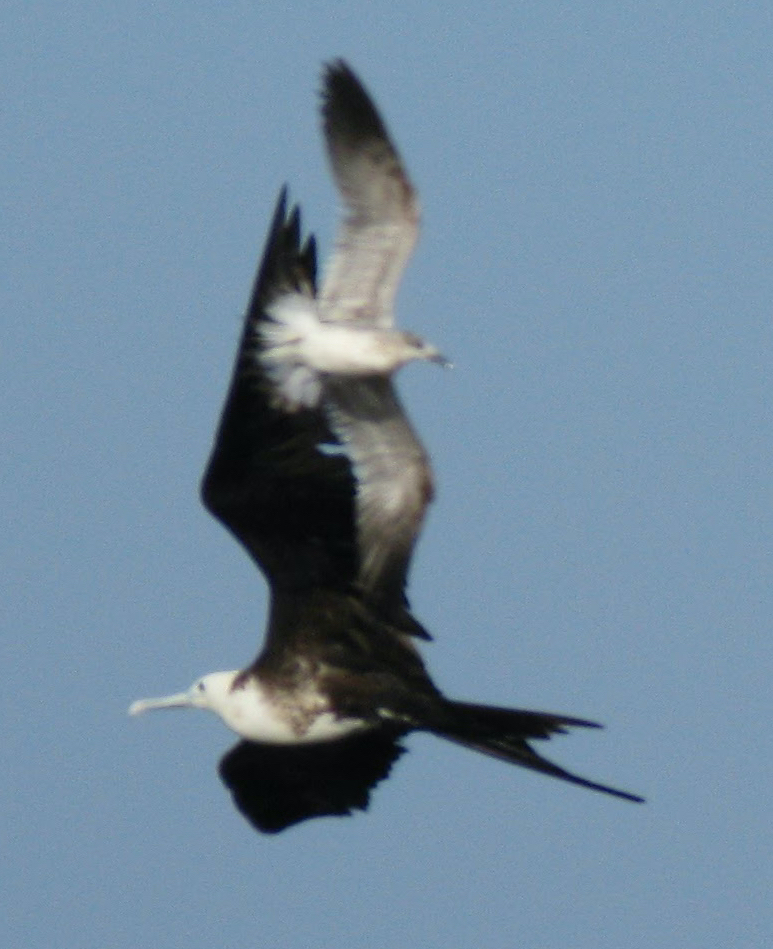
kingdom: Animalia
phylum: Chordata
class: Aves
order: Suliformes
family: Fregatidae
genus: Fregata
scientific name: Fregata magnificens
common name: Magnificent frigatebird
